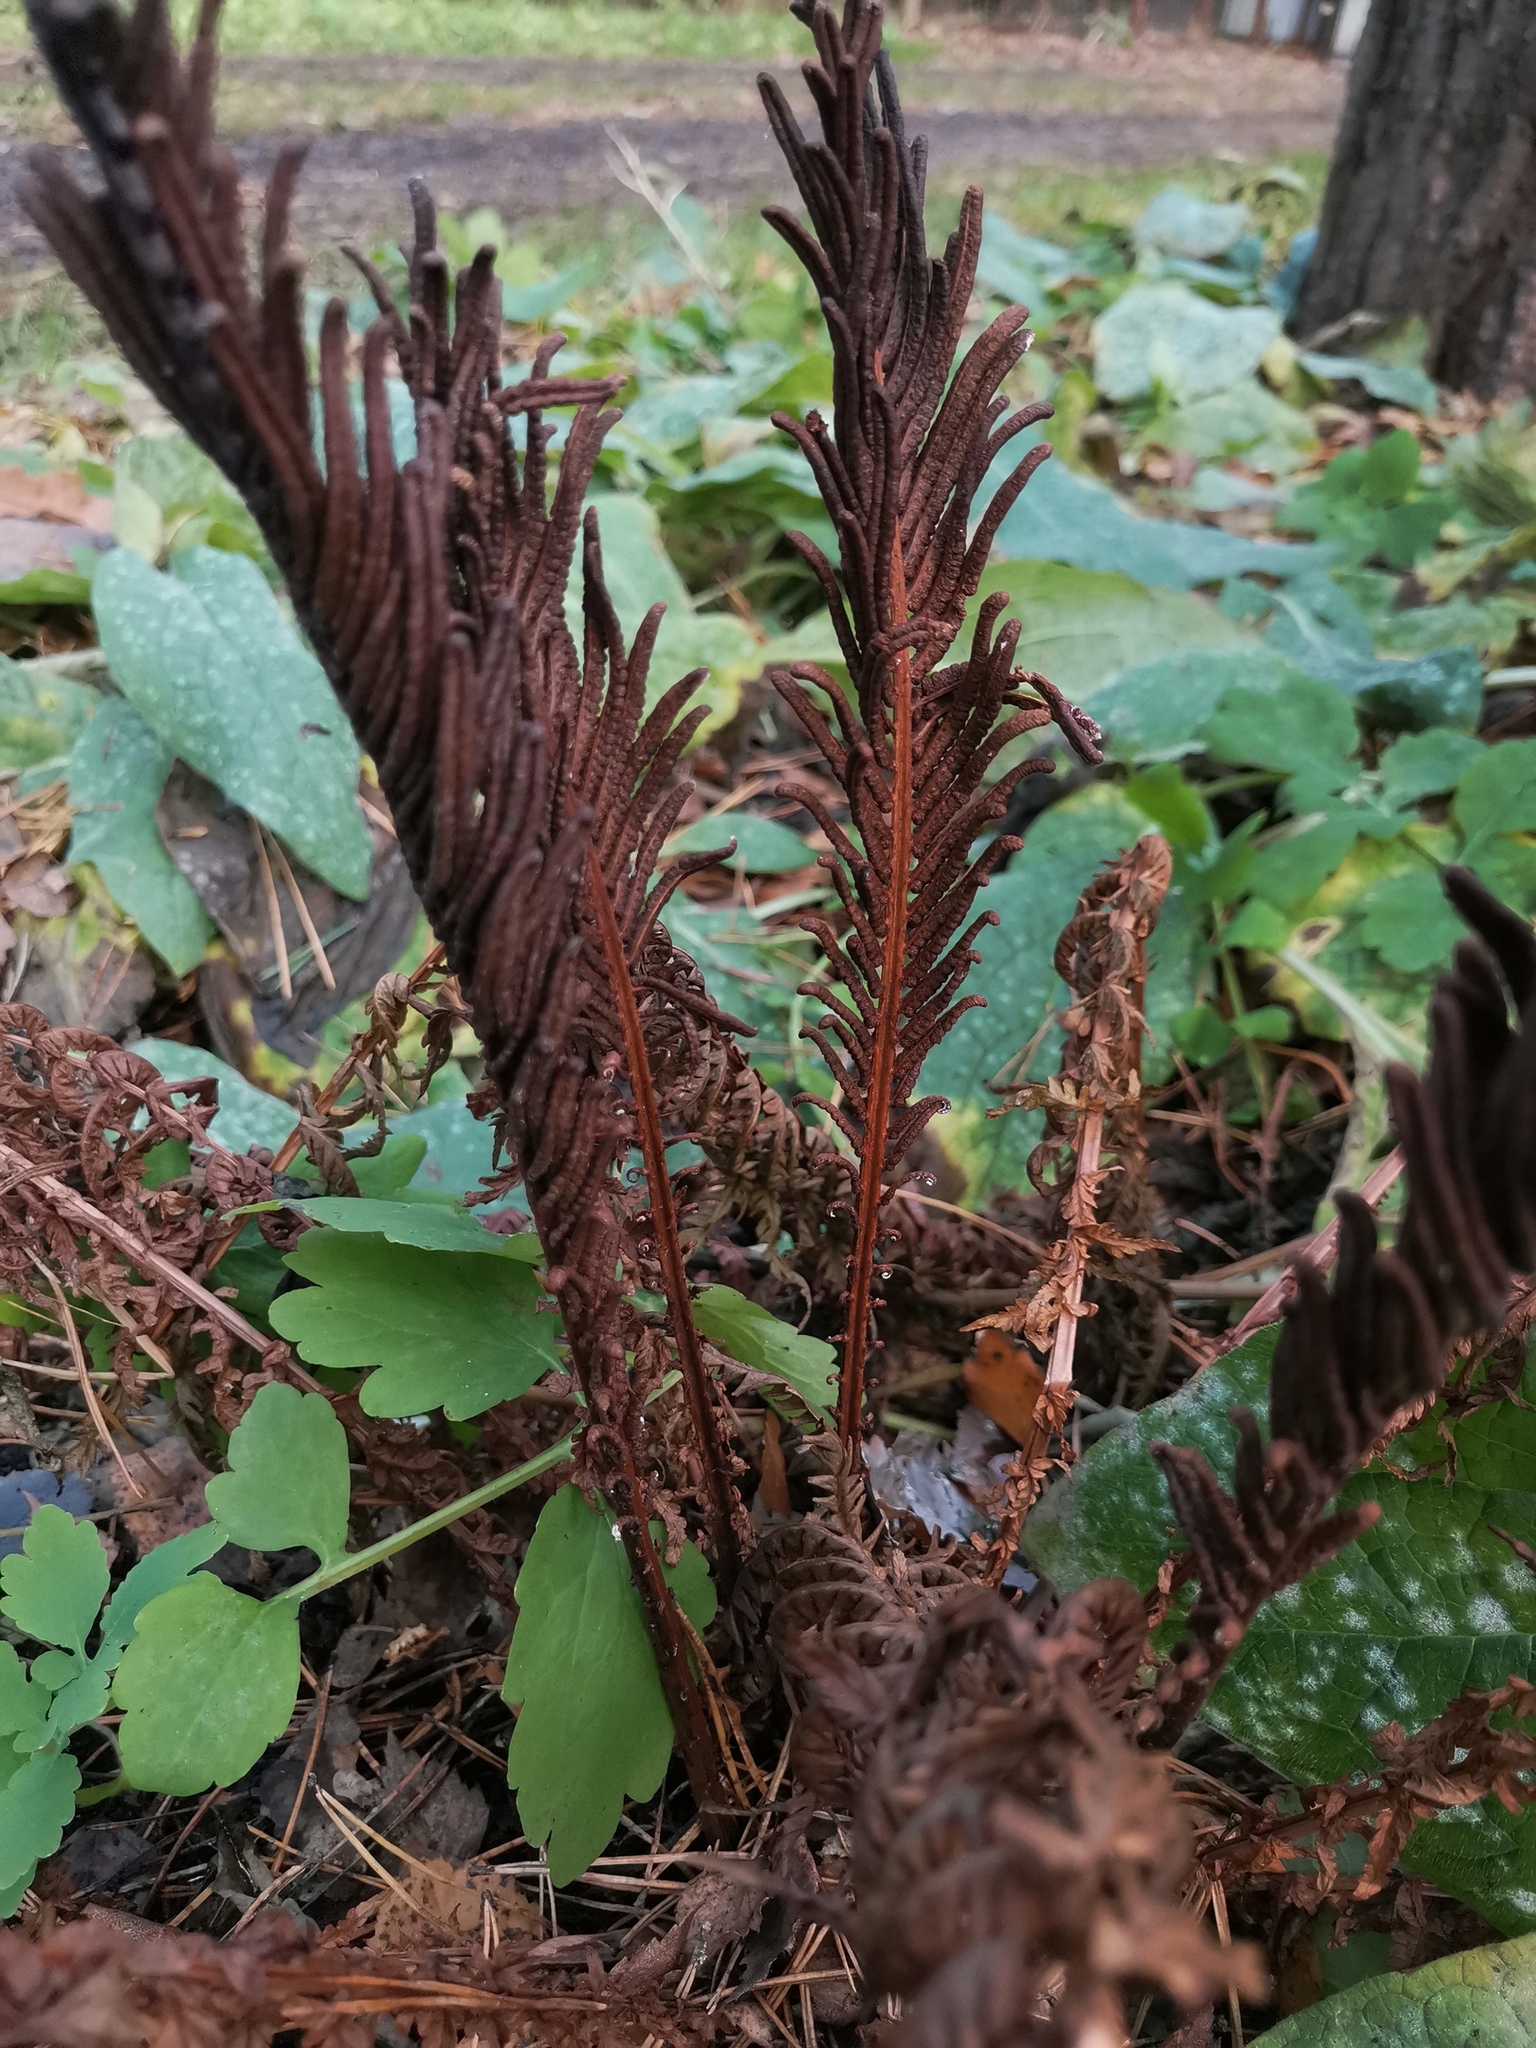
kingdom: Plantae
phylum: Tracheophyta
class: Polypodiopsida
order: Polypodiales
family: Onocleaceae
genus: Matteuccia
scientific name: Matteuccia struthiopteris
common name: Ostrich fern
